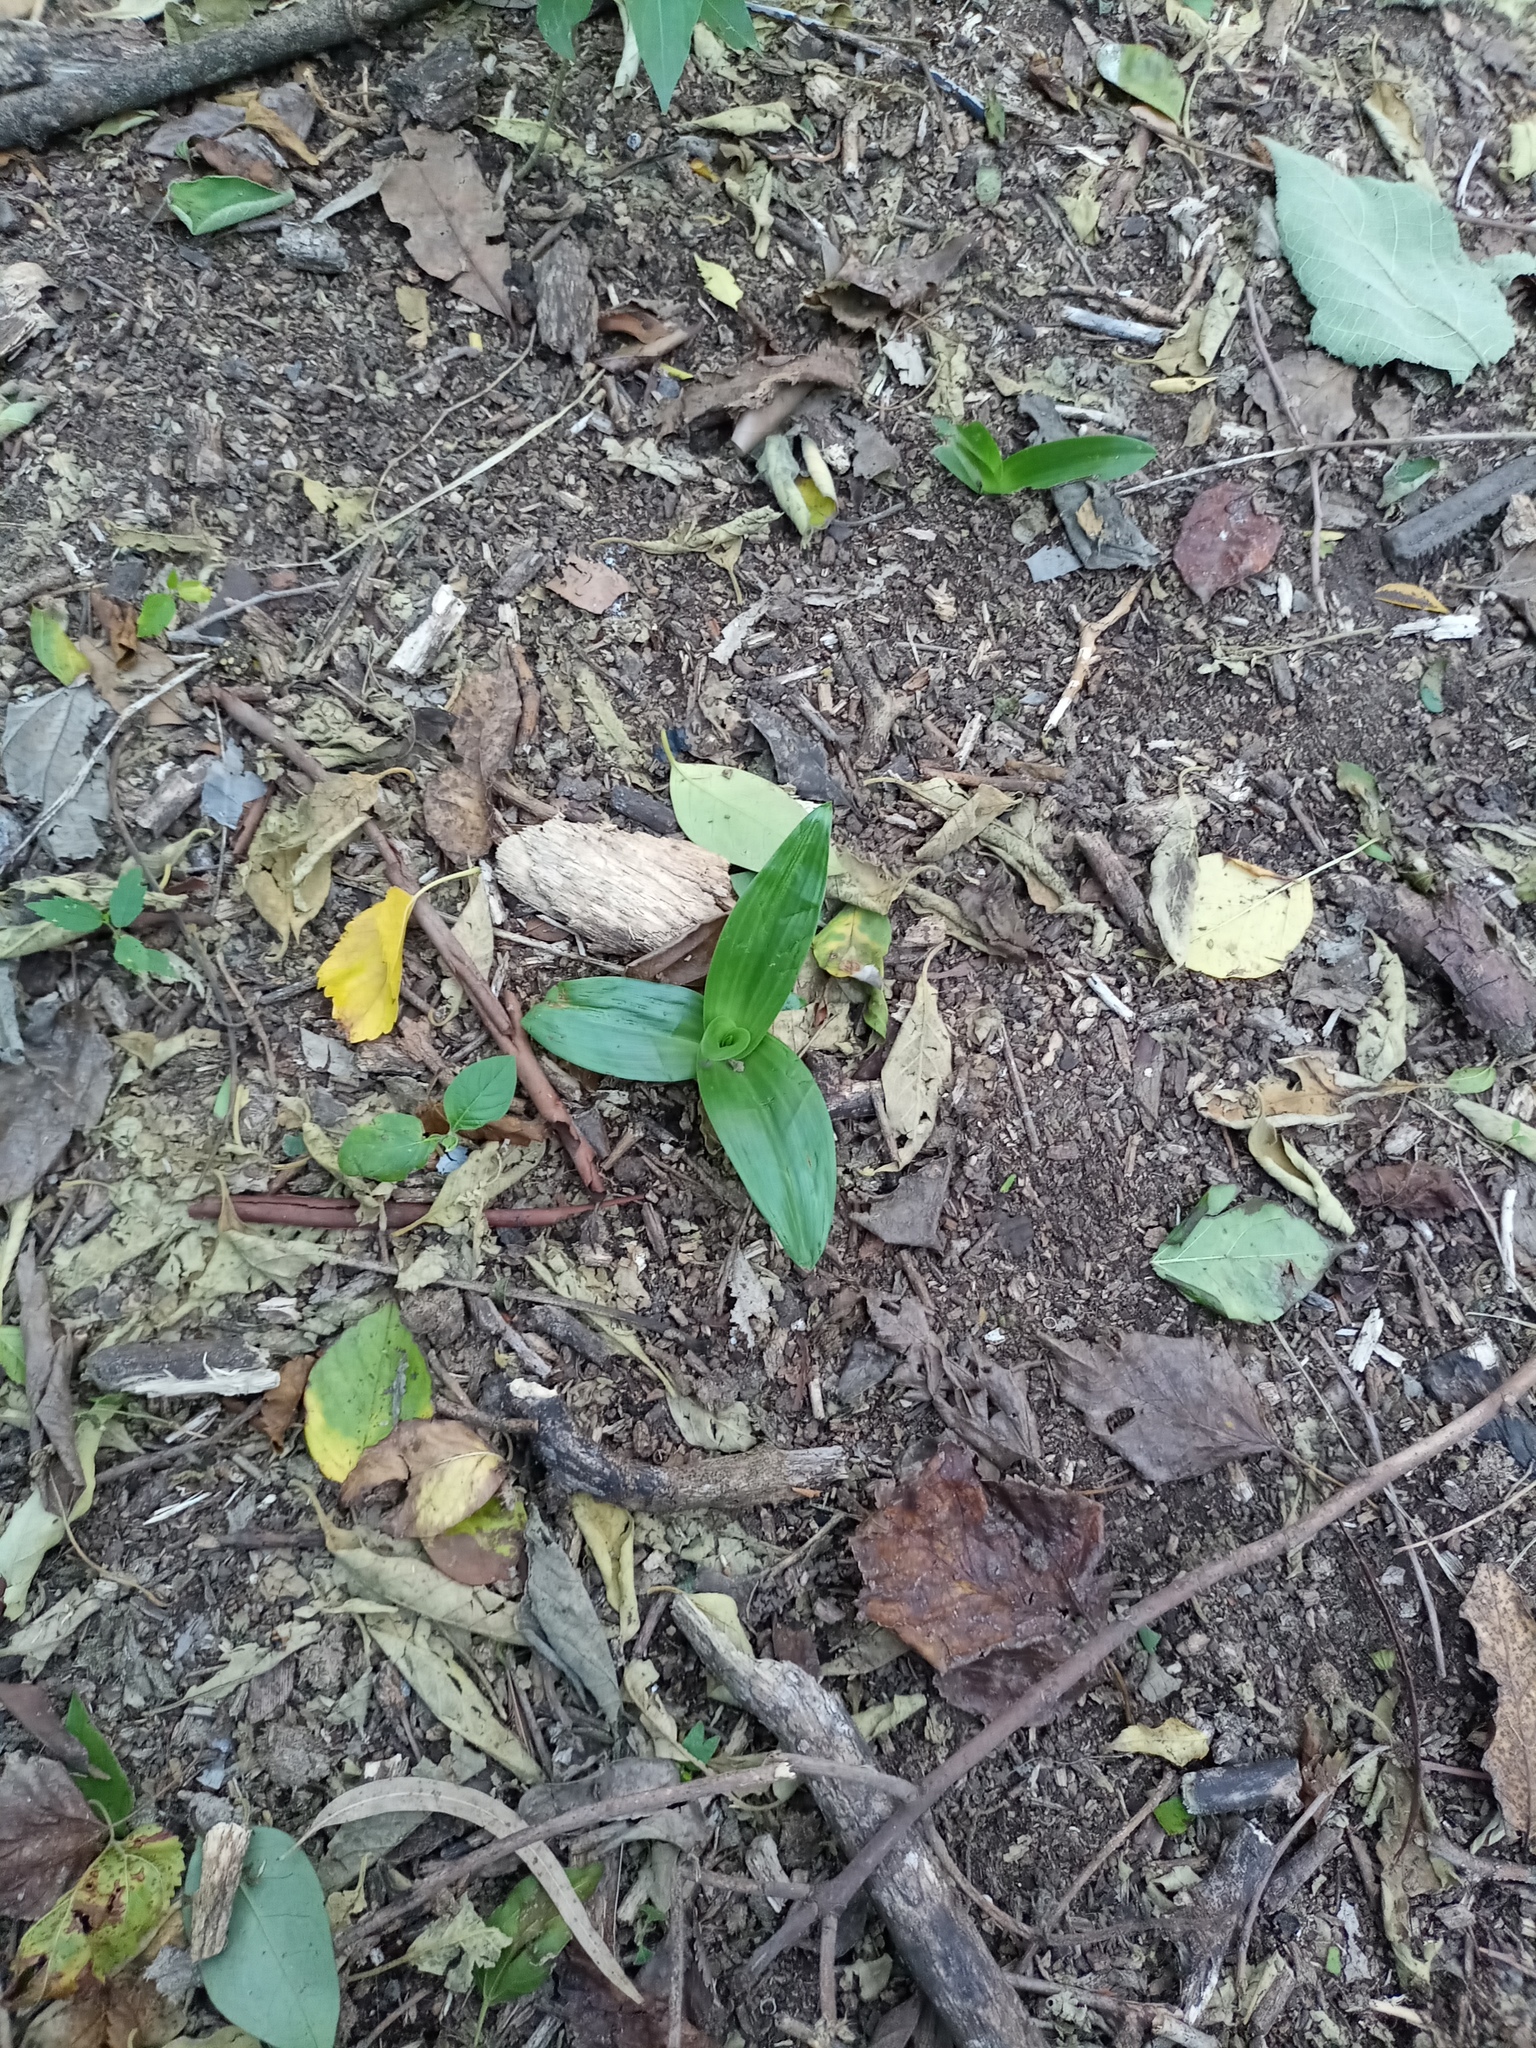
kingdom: Plantae
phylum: Tracheophyta
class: Liliopsida
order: Asparagales
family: Orchidaceae
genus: Chloraea
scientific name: Chloraea membranacea
